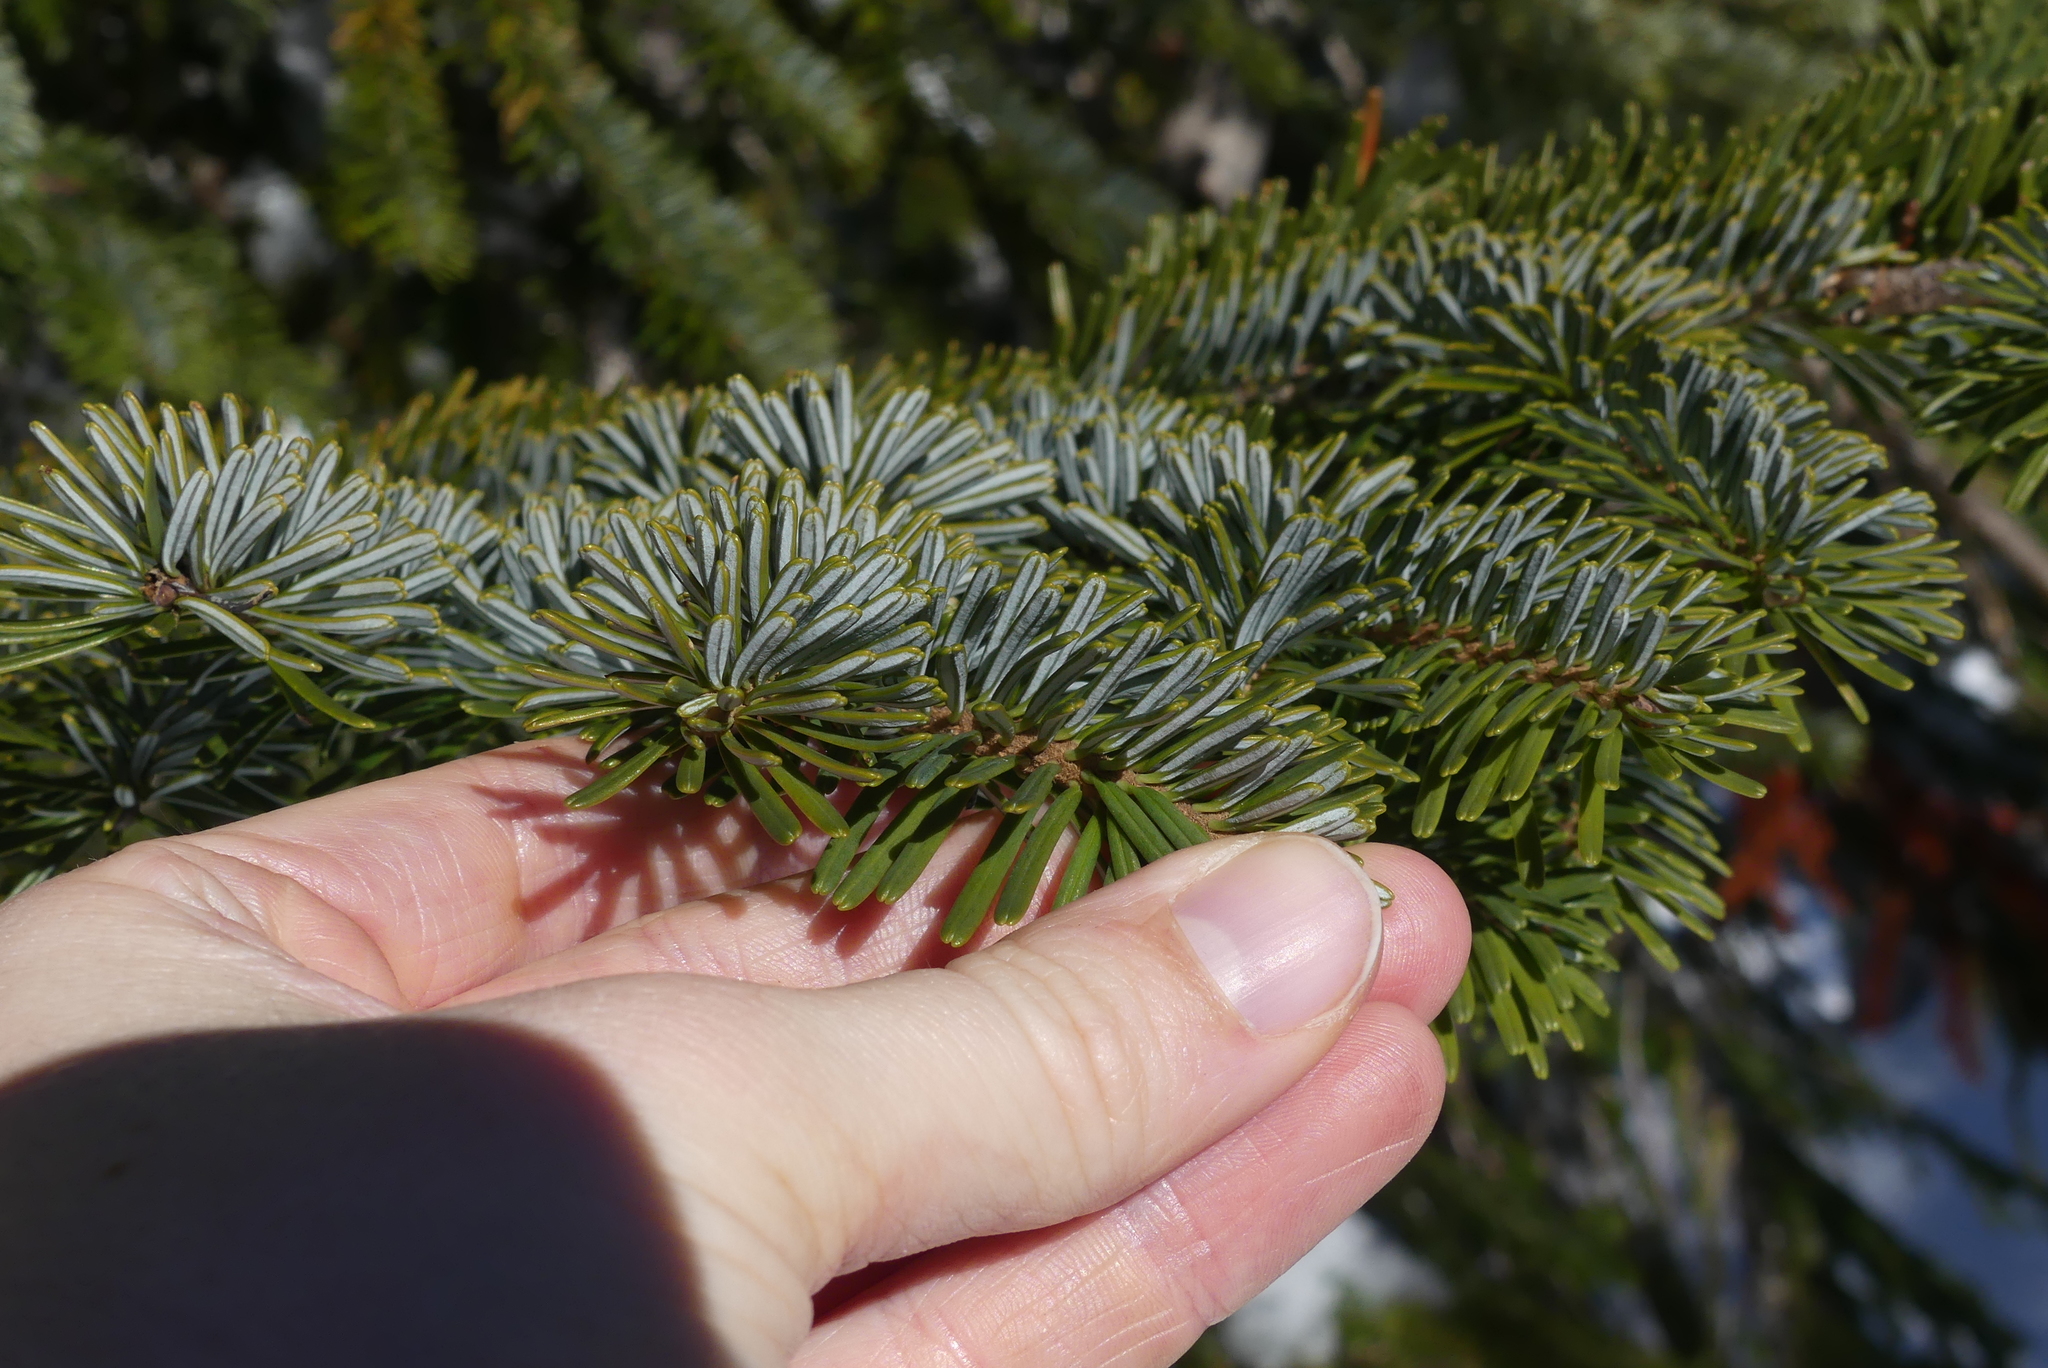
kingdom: Plantae
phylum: Tracheophyta
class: Pinopsida
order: Pinales
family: Pinaceae
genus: Abies
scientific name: Abies amabilis
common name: Pacific silver fir
